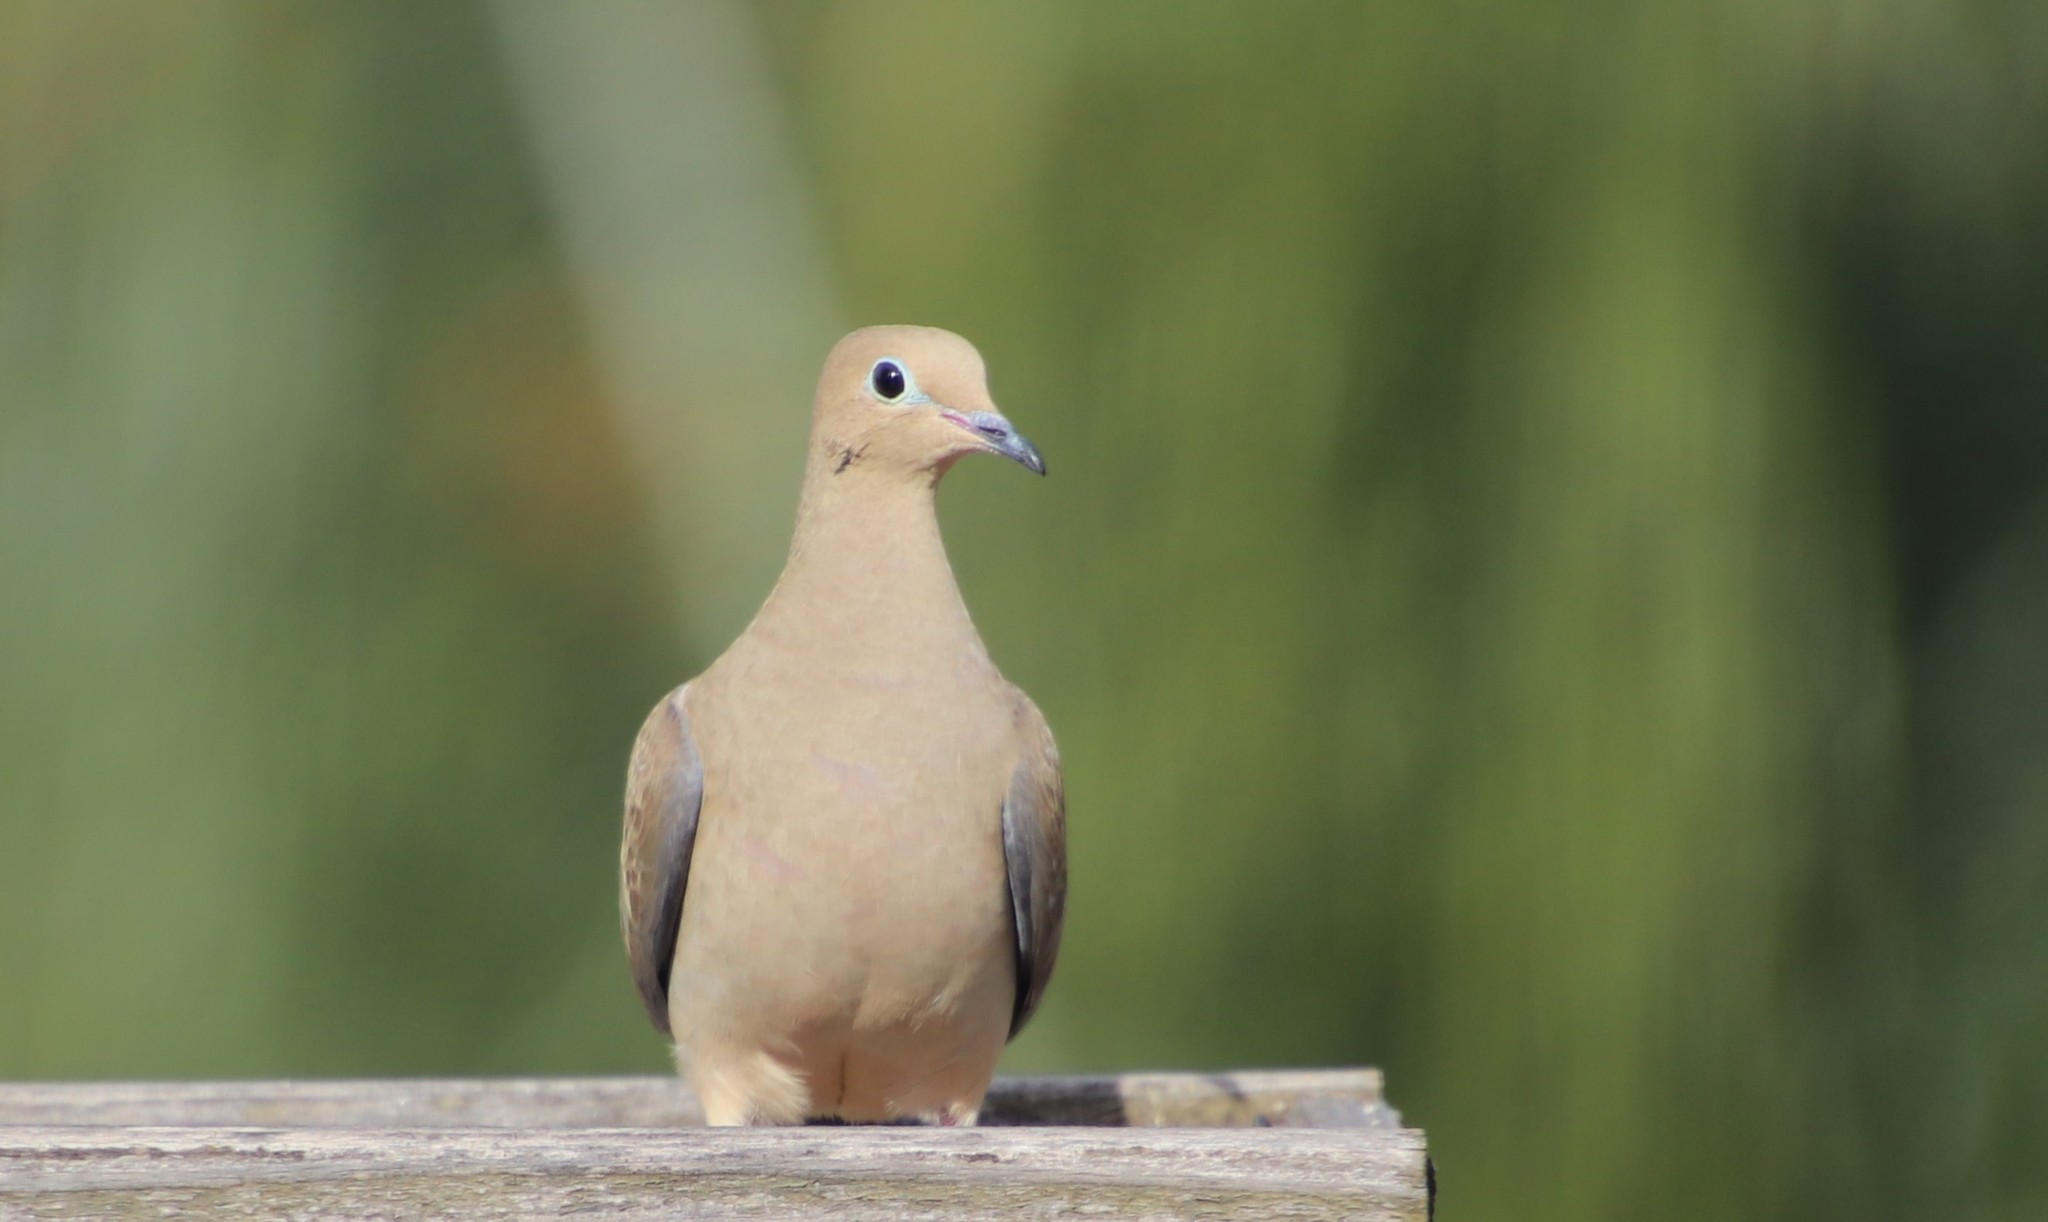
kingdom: Animalia
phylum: Chordata
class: Aves
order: Columbiformes
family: Columbidae
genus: Zenaida
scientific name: Zenaida macroura
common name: Mourning dove
